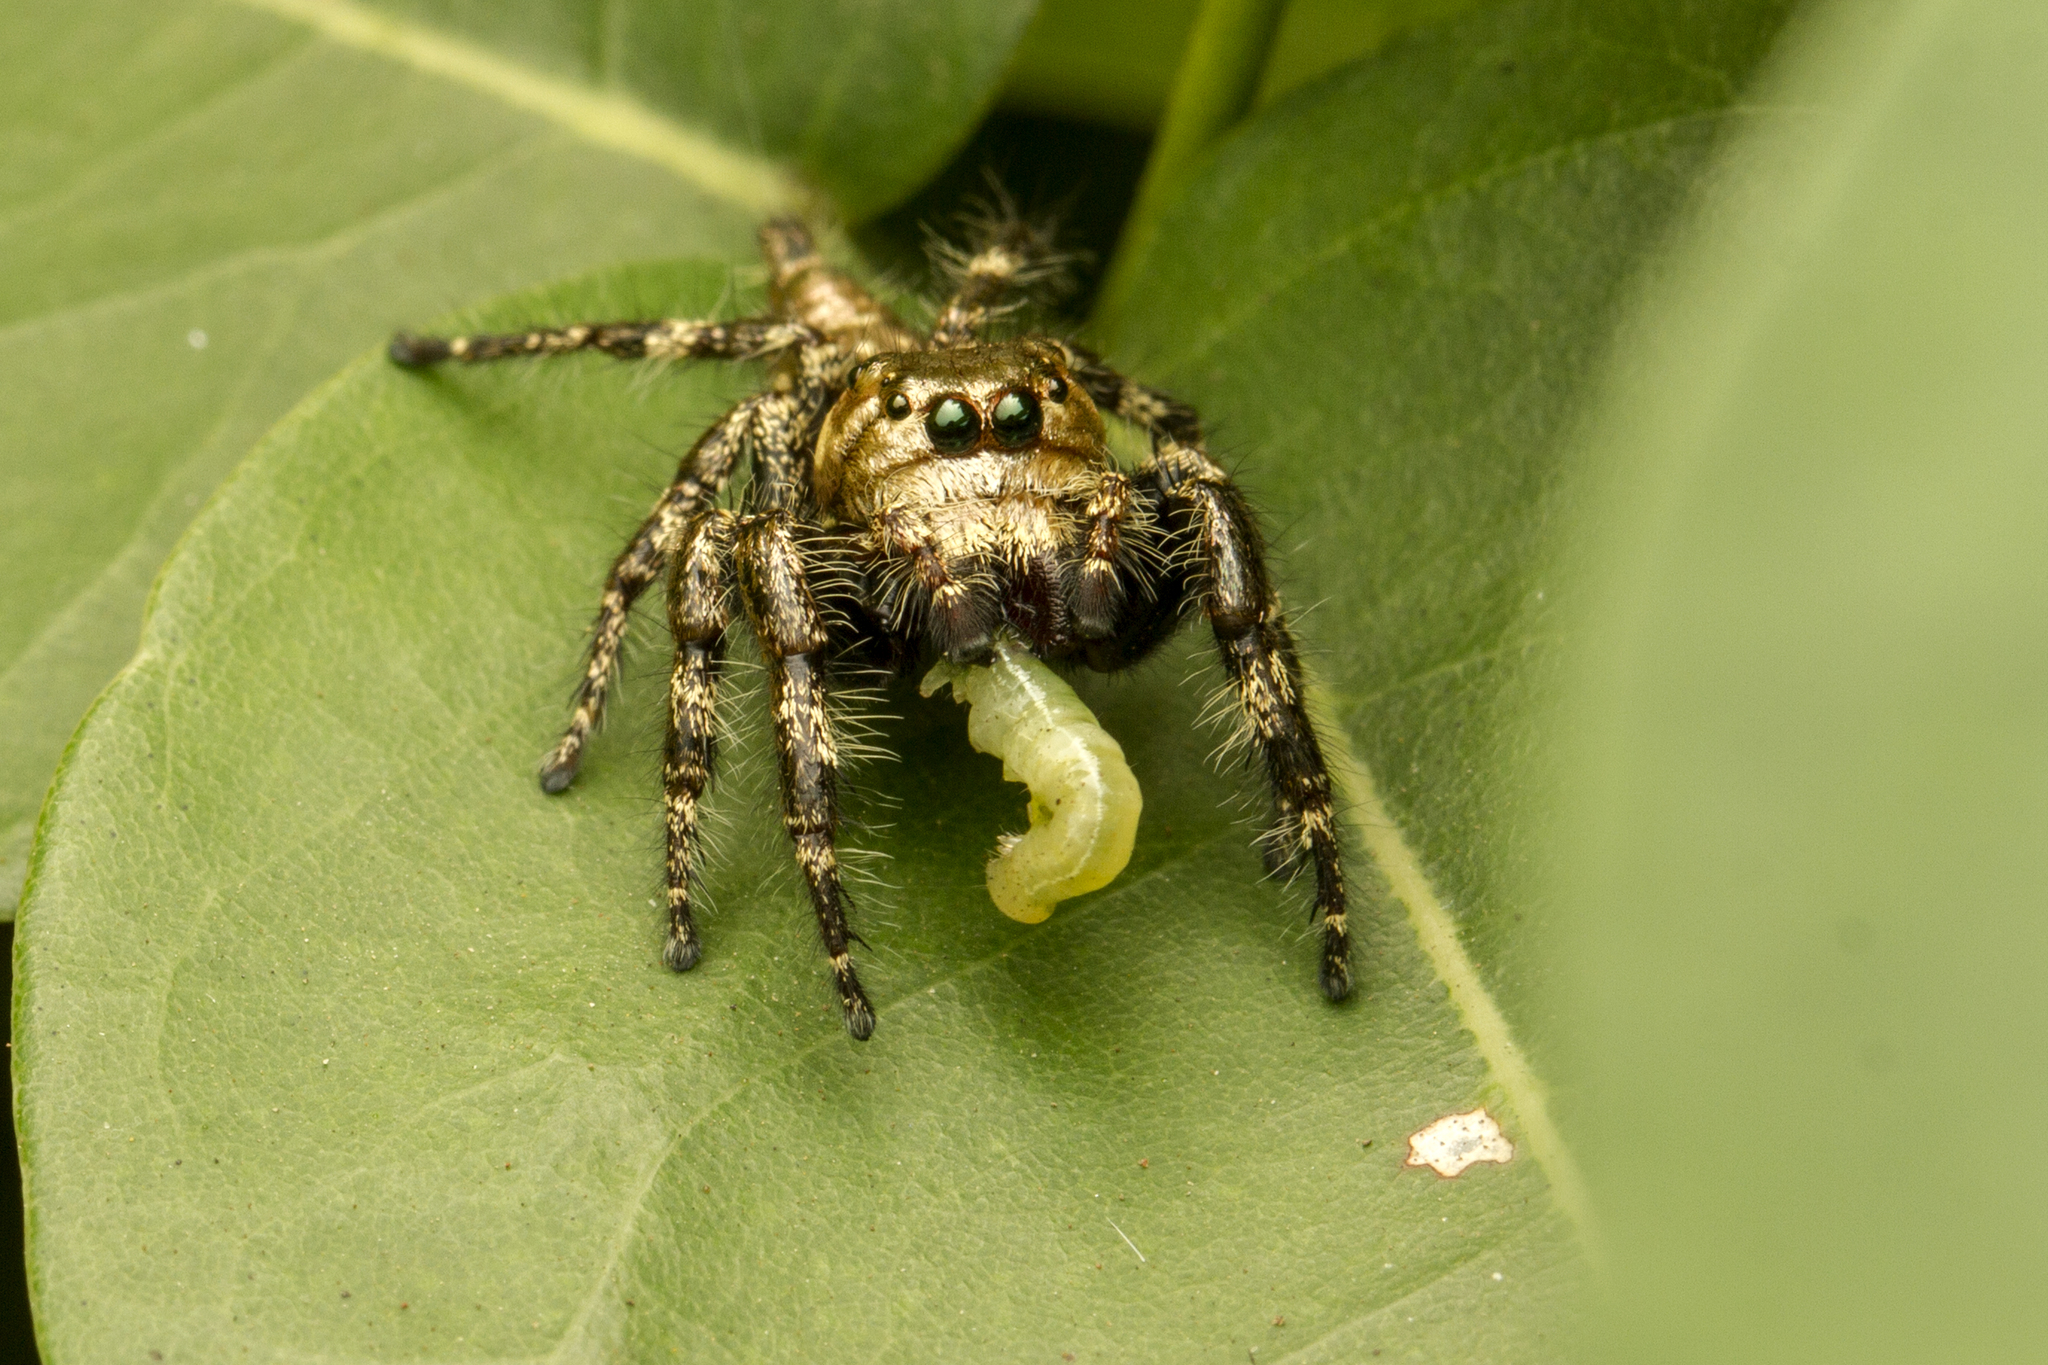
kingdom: Animalia
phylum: Arthropoda
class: Arachnida
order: Araneae
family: Salticidae
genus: Hyllus
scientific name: Hyllus semicupreus
